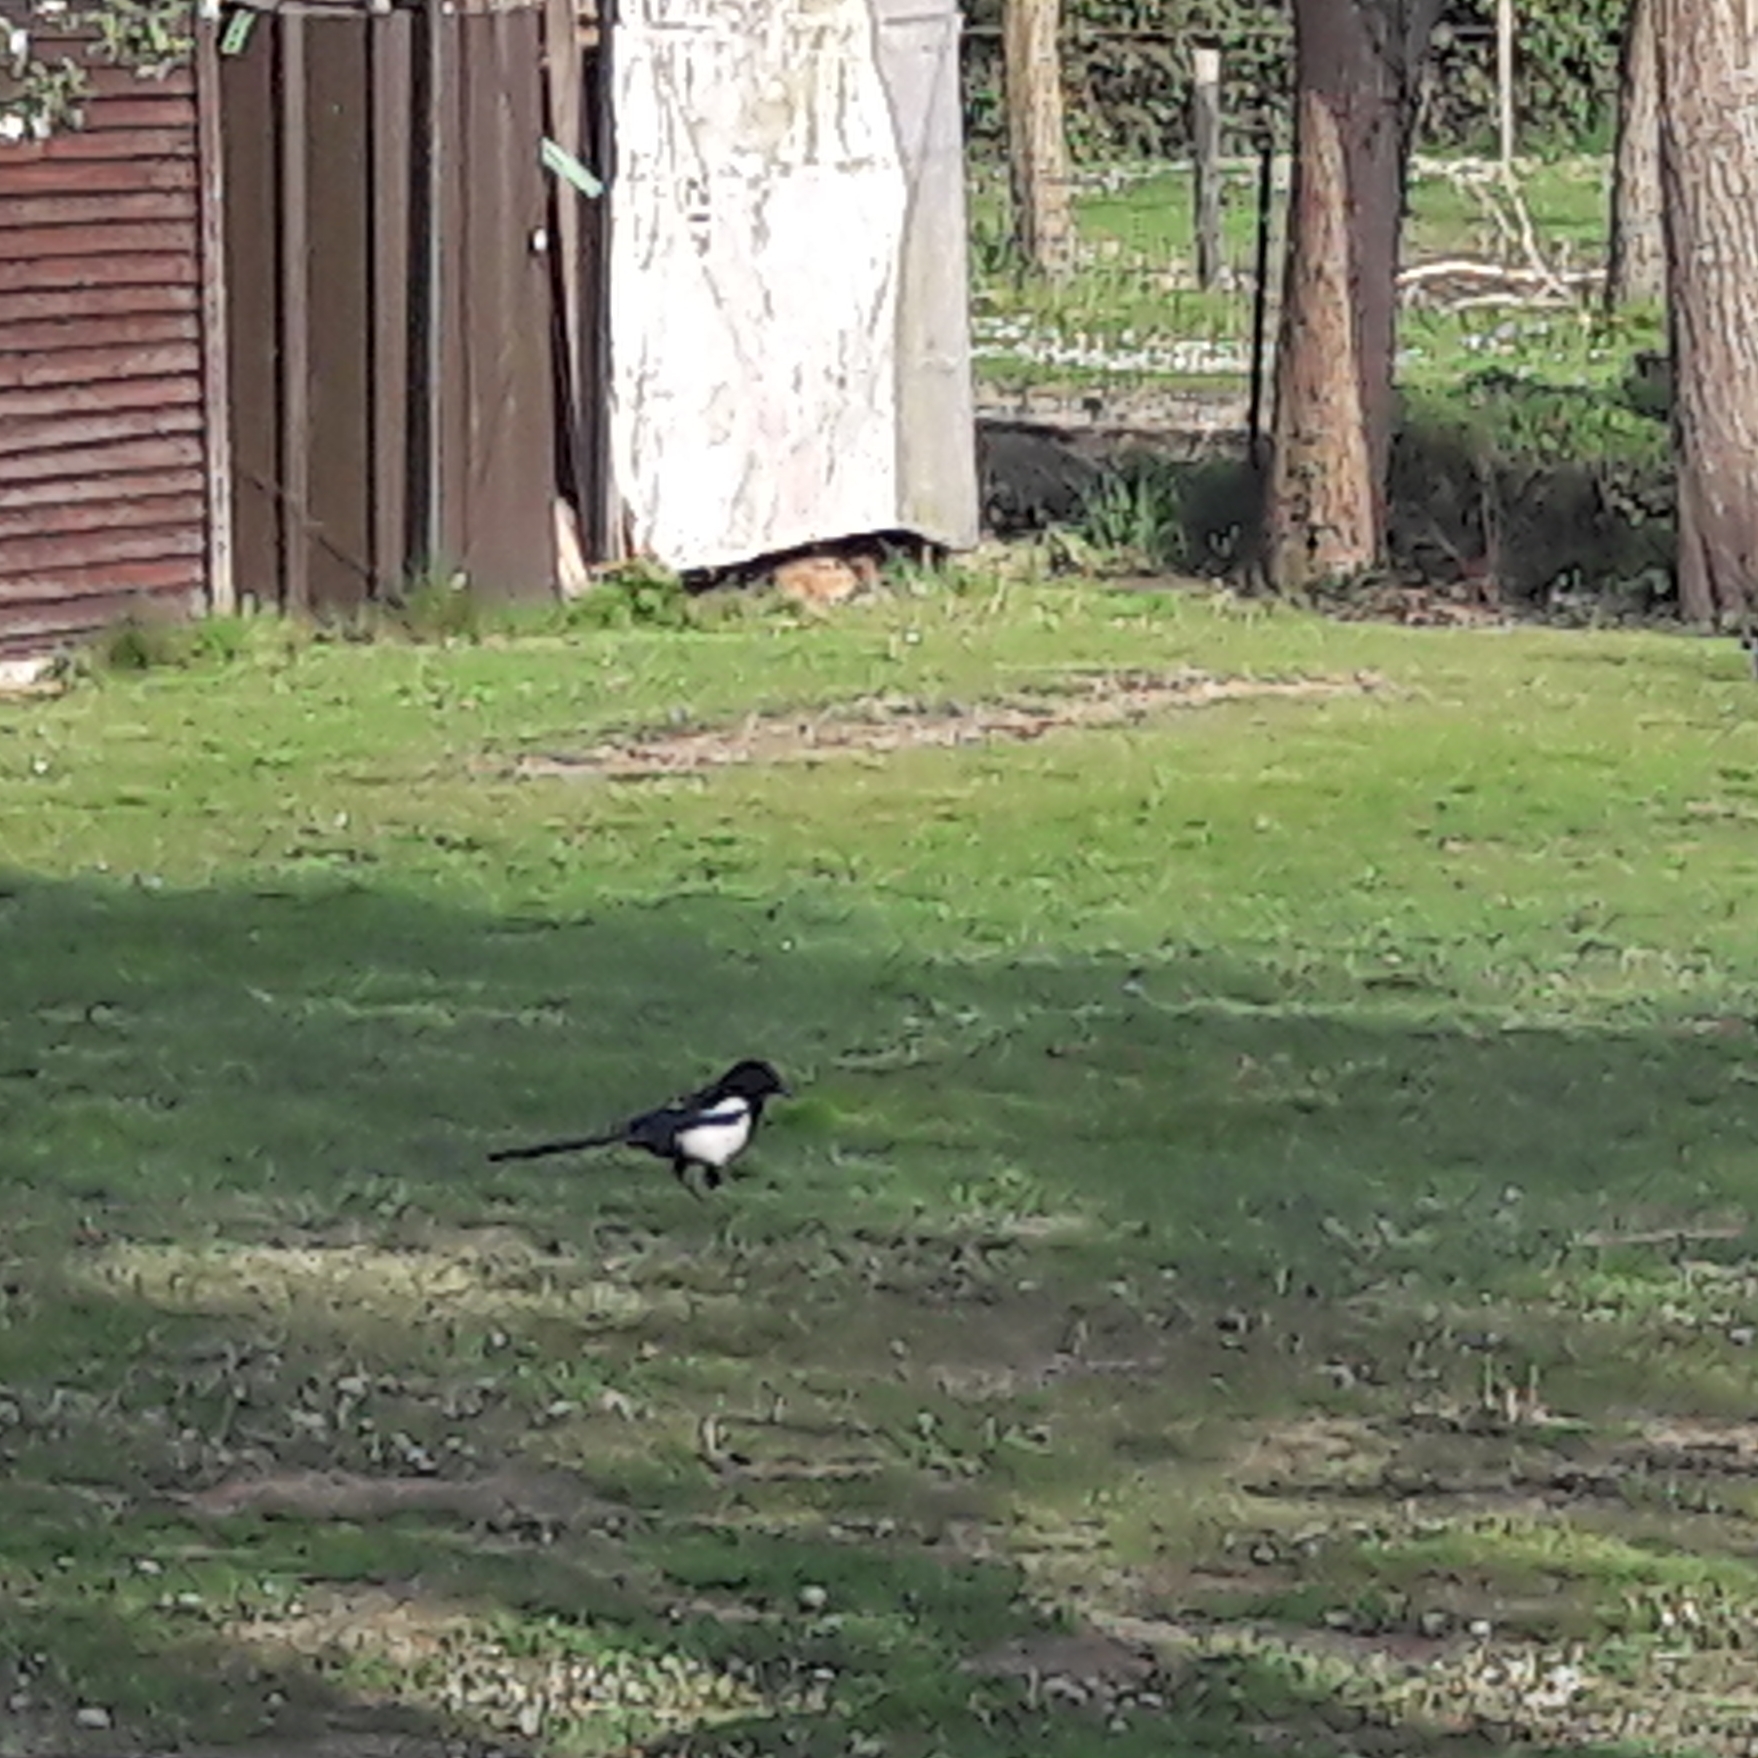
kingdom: Animalia
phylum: Chordata
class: Aves
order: Passeriformes
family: Corvidae
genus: Pica
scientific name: Pica pica
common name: Eurasian magpie
